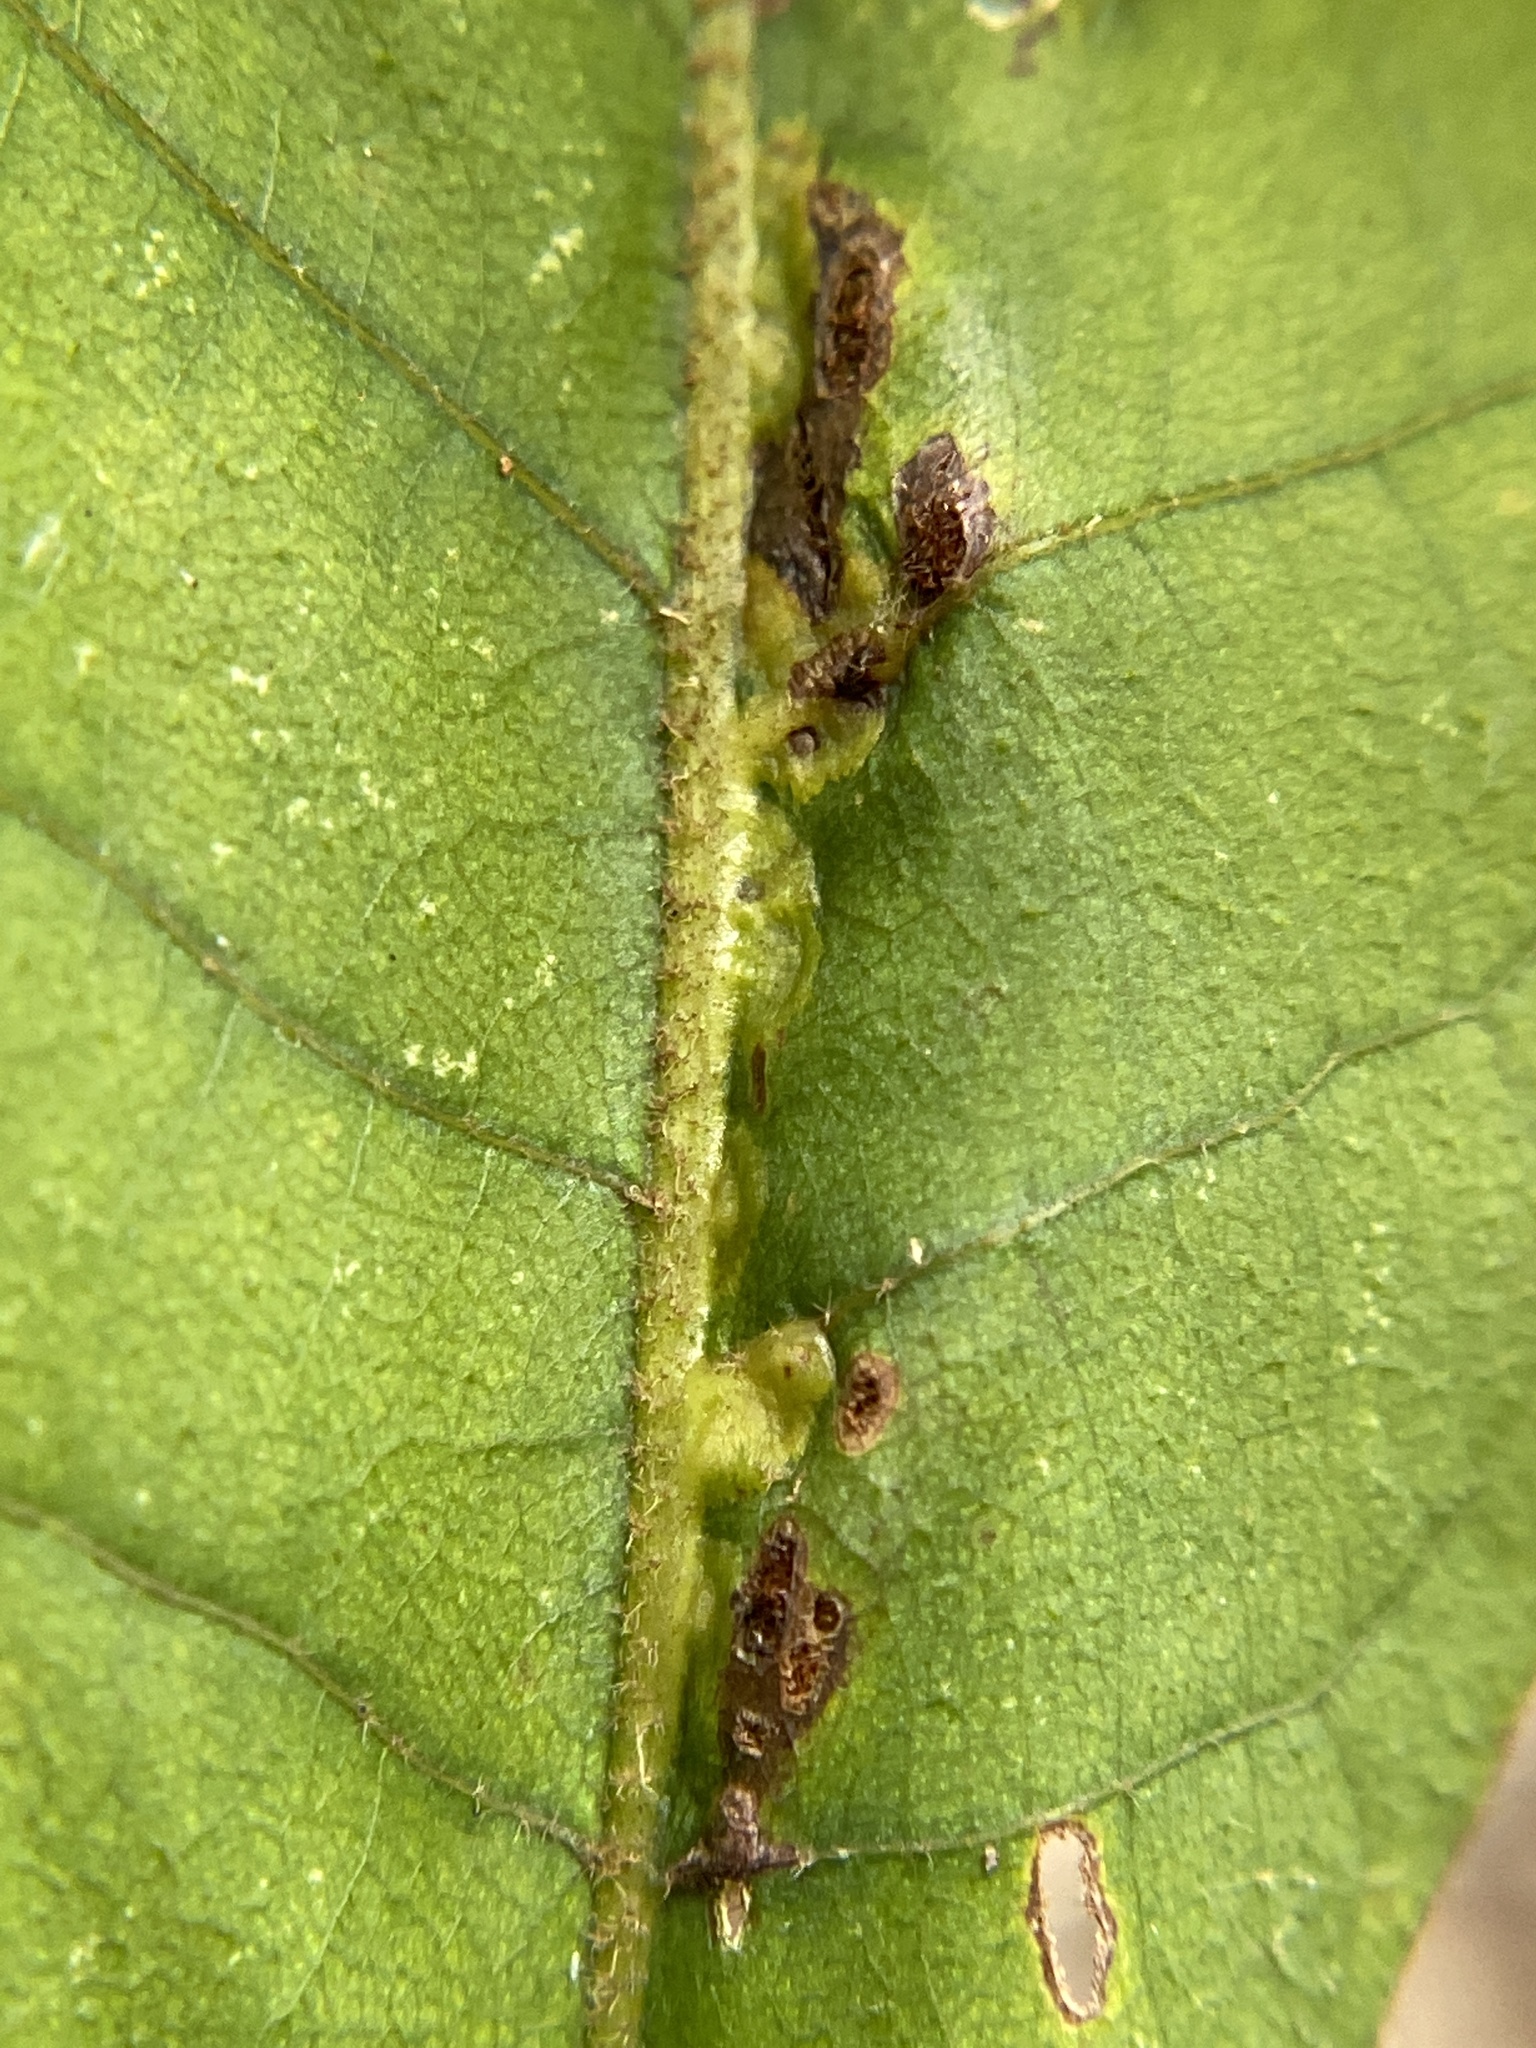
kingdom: Animalia
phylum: Arthropoda
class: Insecta
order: Diptera
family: Cecidomyiidae
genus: Caryomyia
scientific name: Caryomyia aggregata
